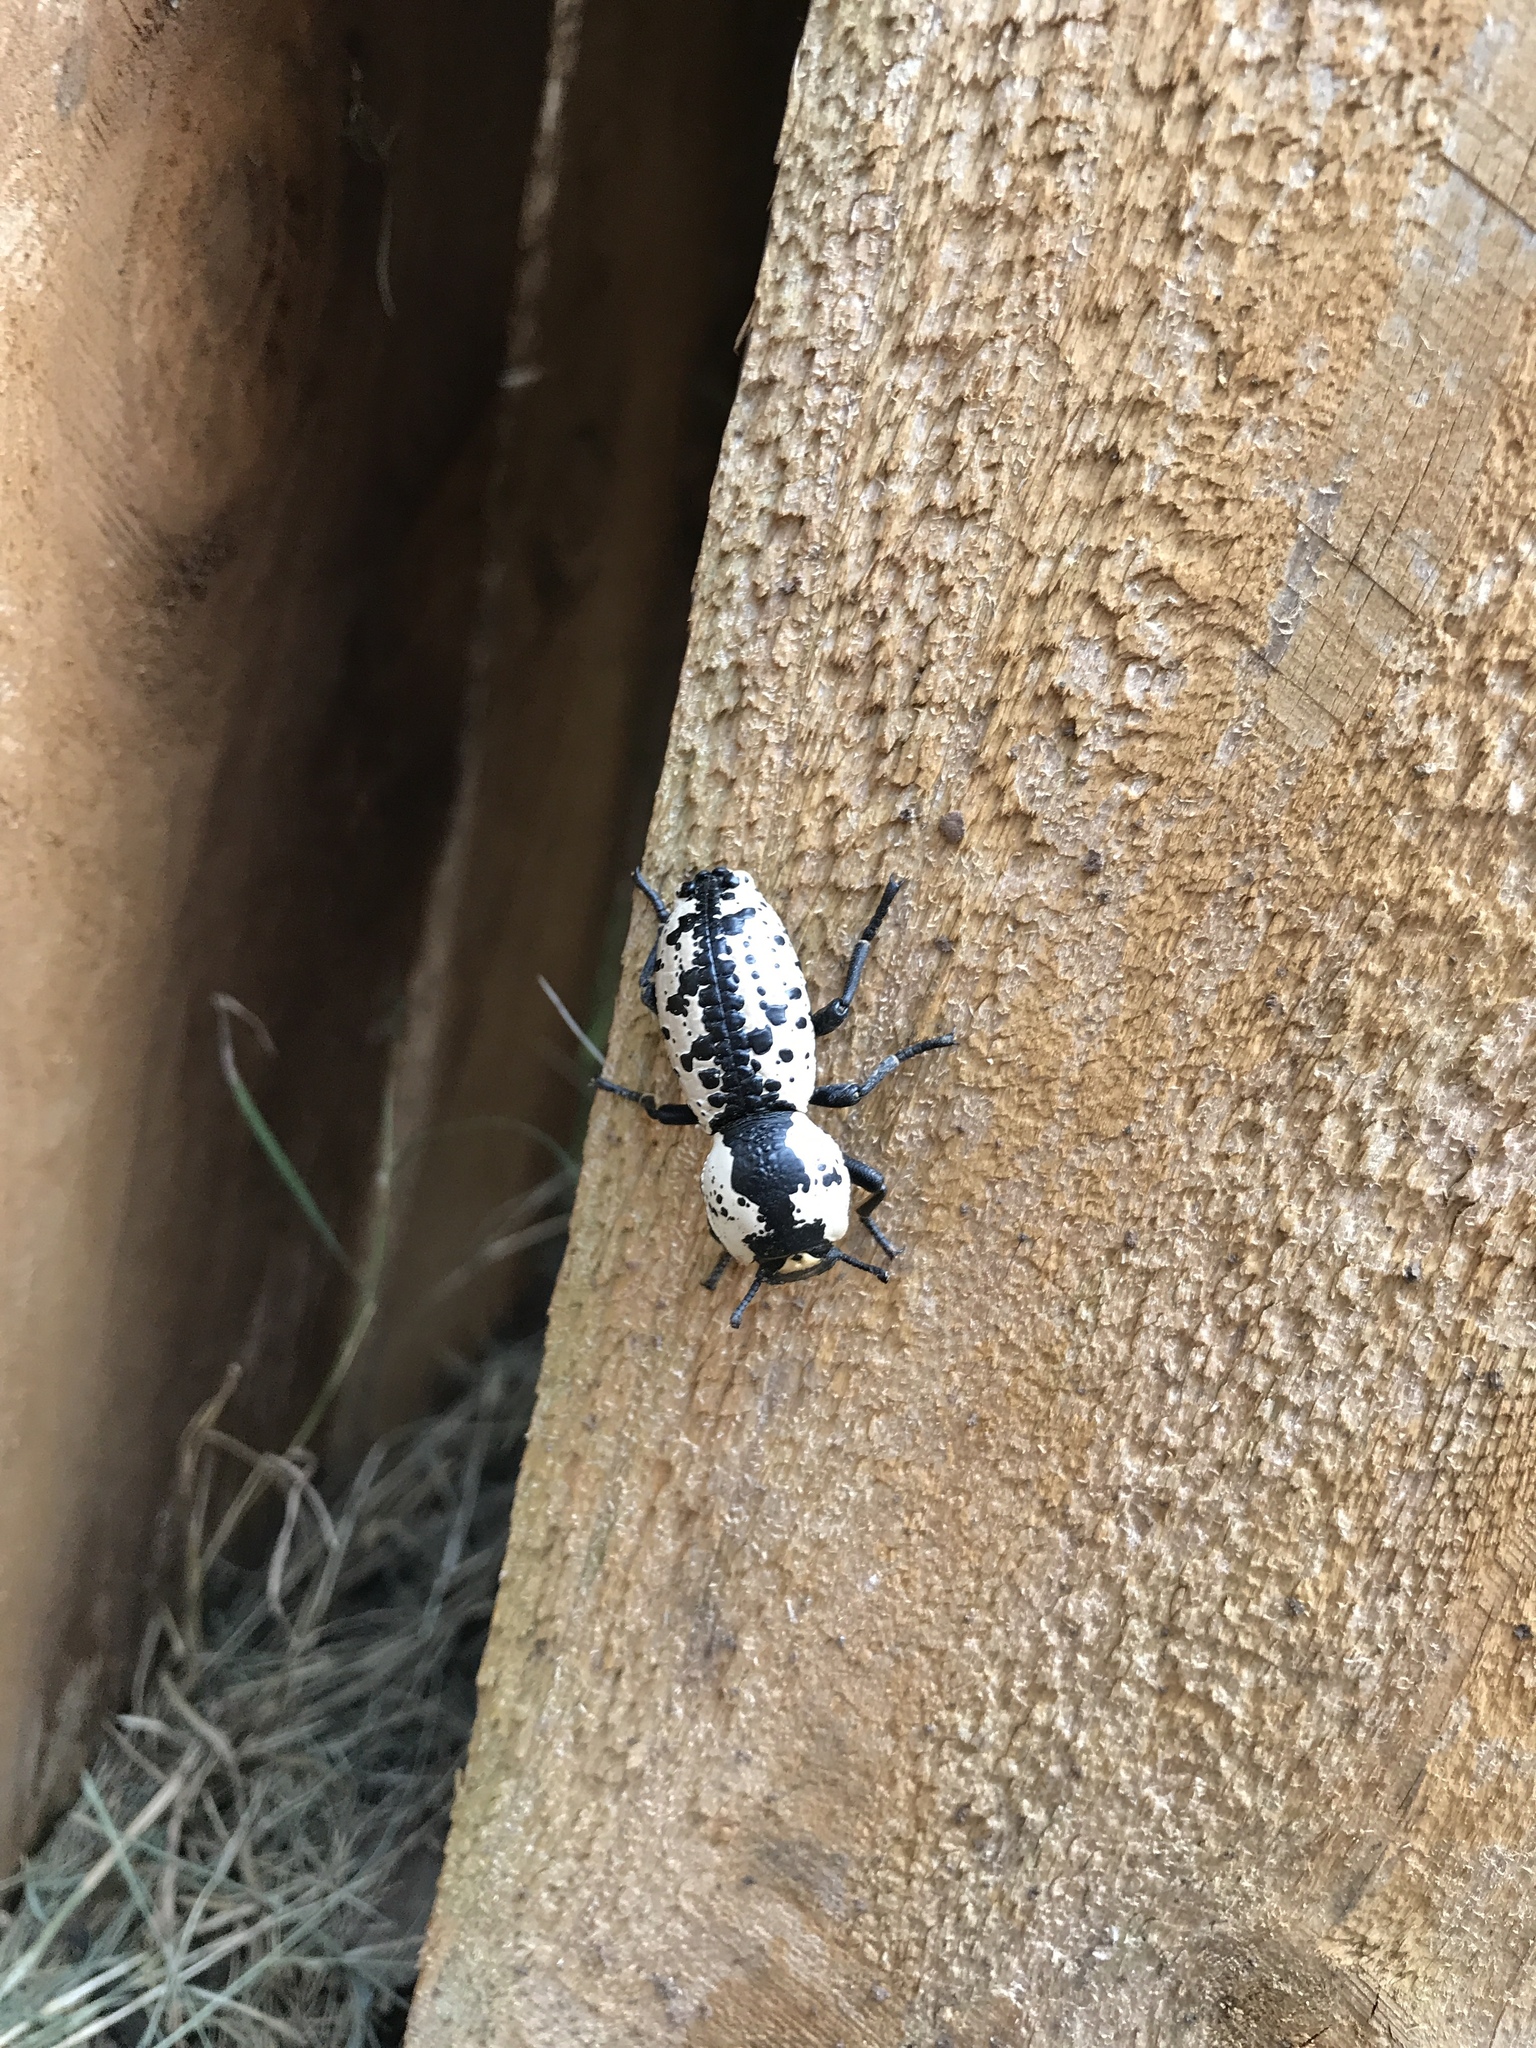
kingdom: Animalia
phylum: Arthropoda
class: Insecta
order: Coleoptera
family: Zopheridae
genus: Zopherus
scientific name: Zopherus nodulosus
